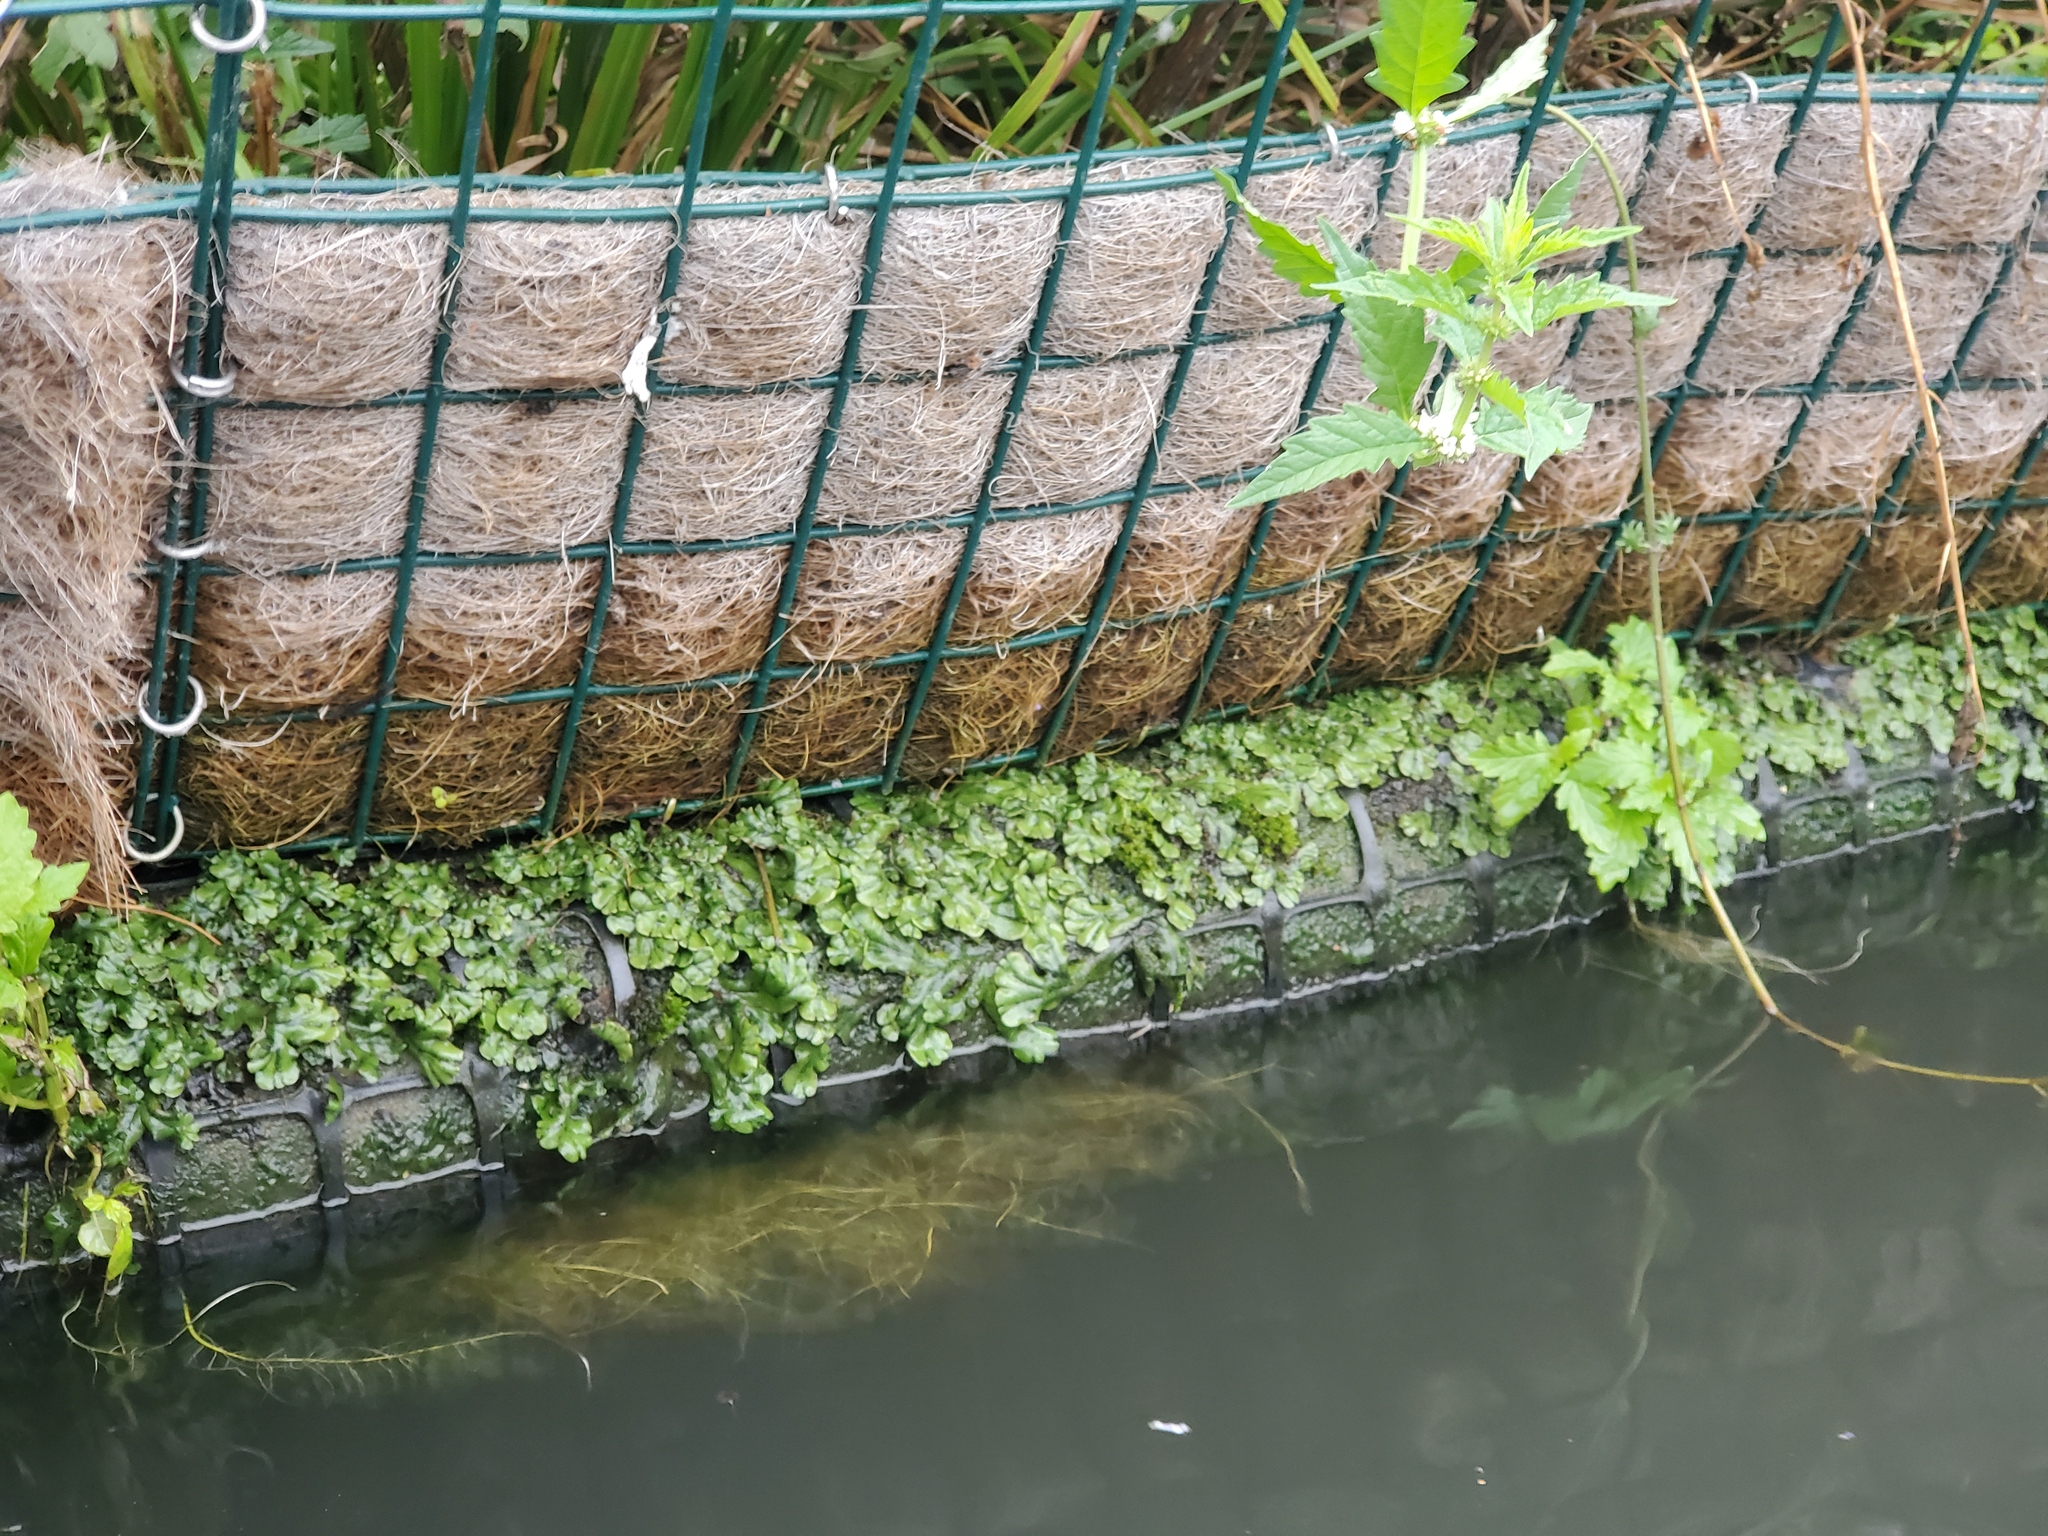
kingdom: Plantae
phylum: Marchantiophyta
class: Marchantiopsida
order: Marchantiales
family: Marchantiaceae
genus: Marchantia
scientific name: Marchantia polymorpha
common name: Common liverwort
